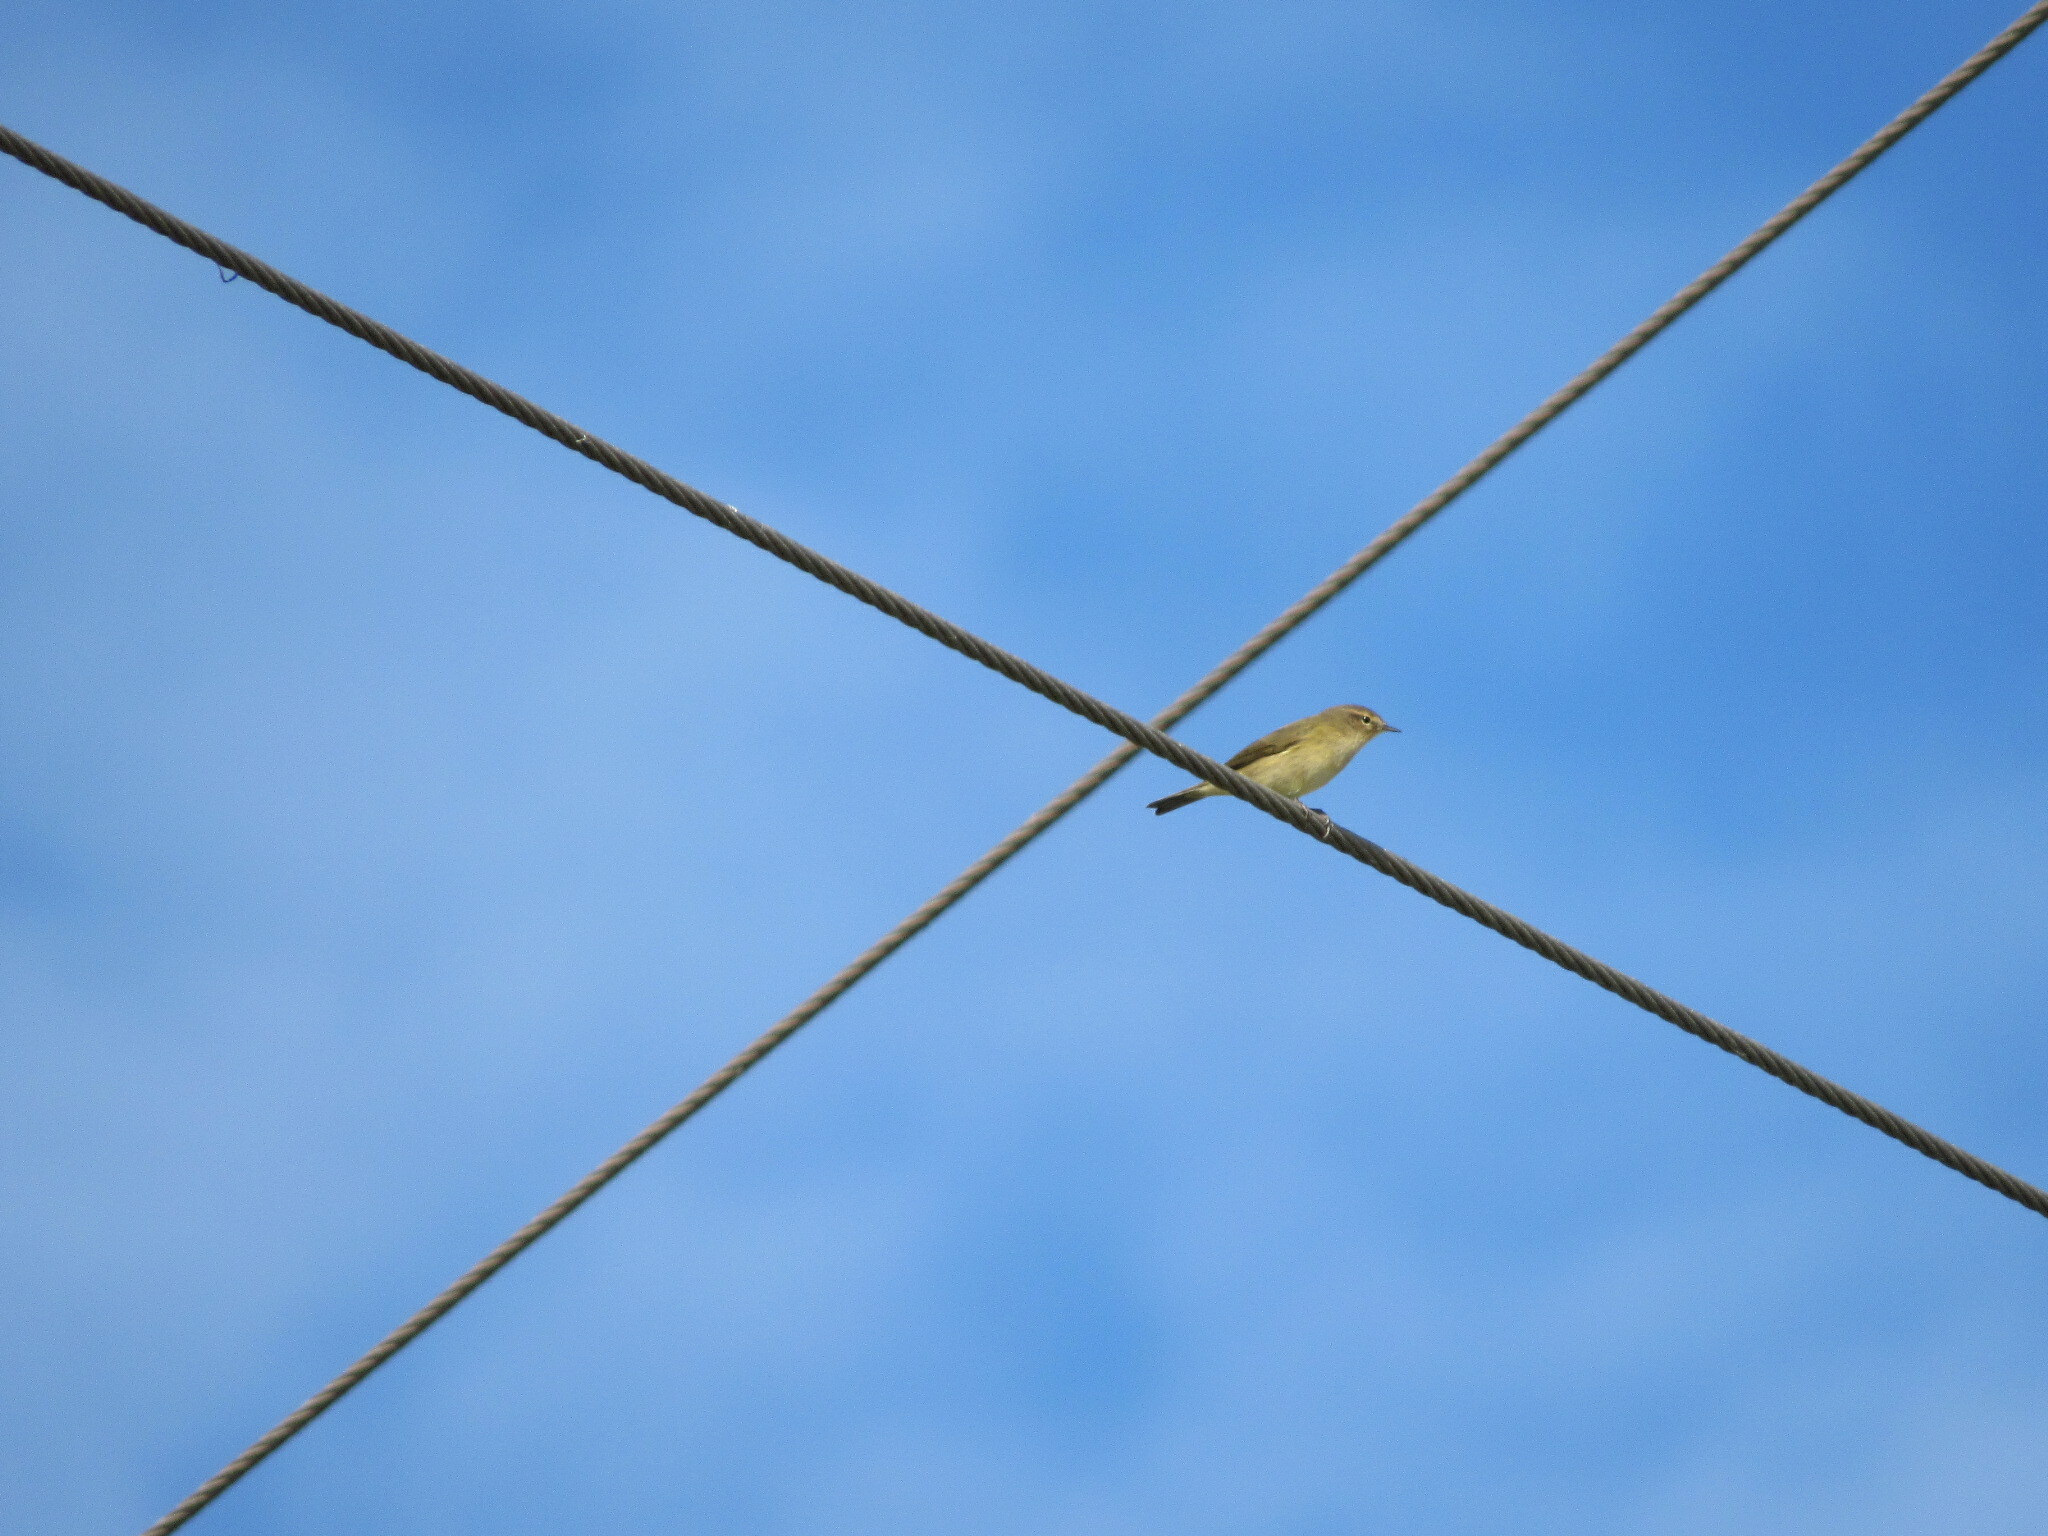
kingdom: Animalia
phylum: Chordata
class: Aves
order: Passeriformes
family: Phylloscopidae
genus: Phylloscopus
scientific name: Phylloscopus collybita
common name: Common chiffchaff
